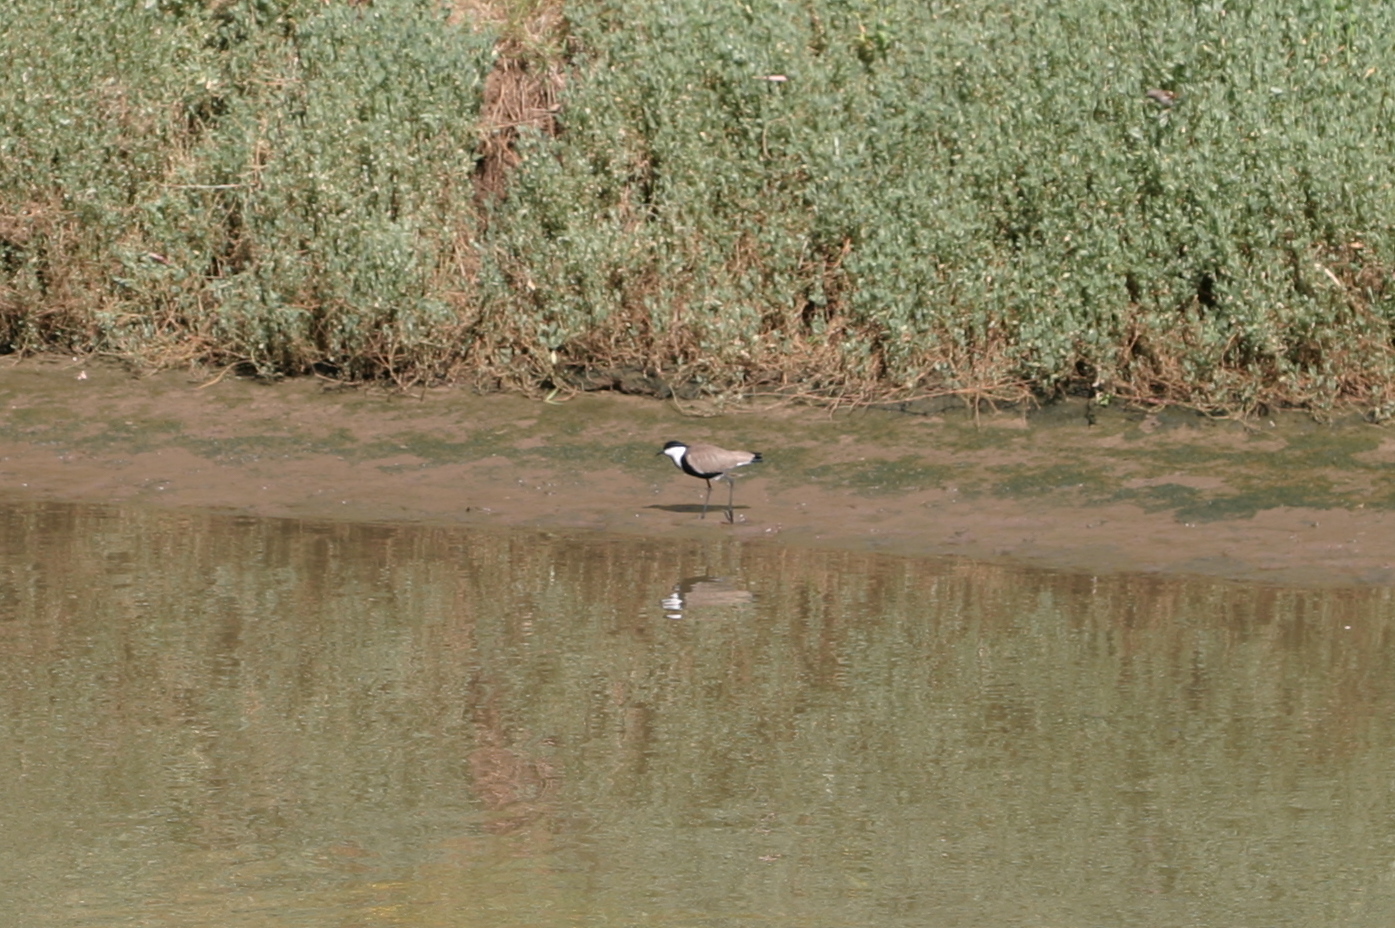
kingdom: Animalia
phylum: Chordata
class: Aves
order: Charadriiformes
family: Charadriidae
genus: Vanellus
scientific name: Vanellus spinosus
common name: Spur-winged lapwing
